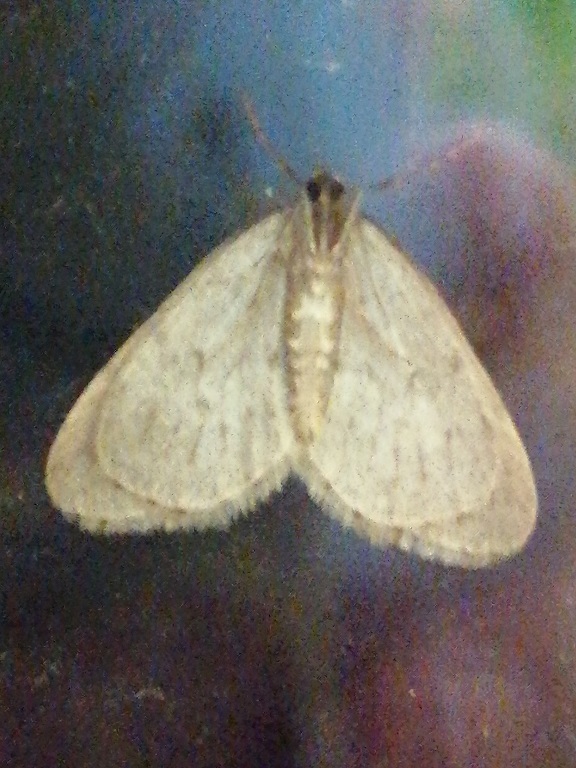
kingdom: Animalia
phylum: Arthropoda
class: Insecta
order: Lepidoptera
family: Geometridae
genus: Operophtera
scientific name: Operophtera brumata
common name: Winter moth
